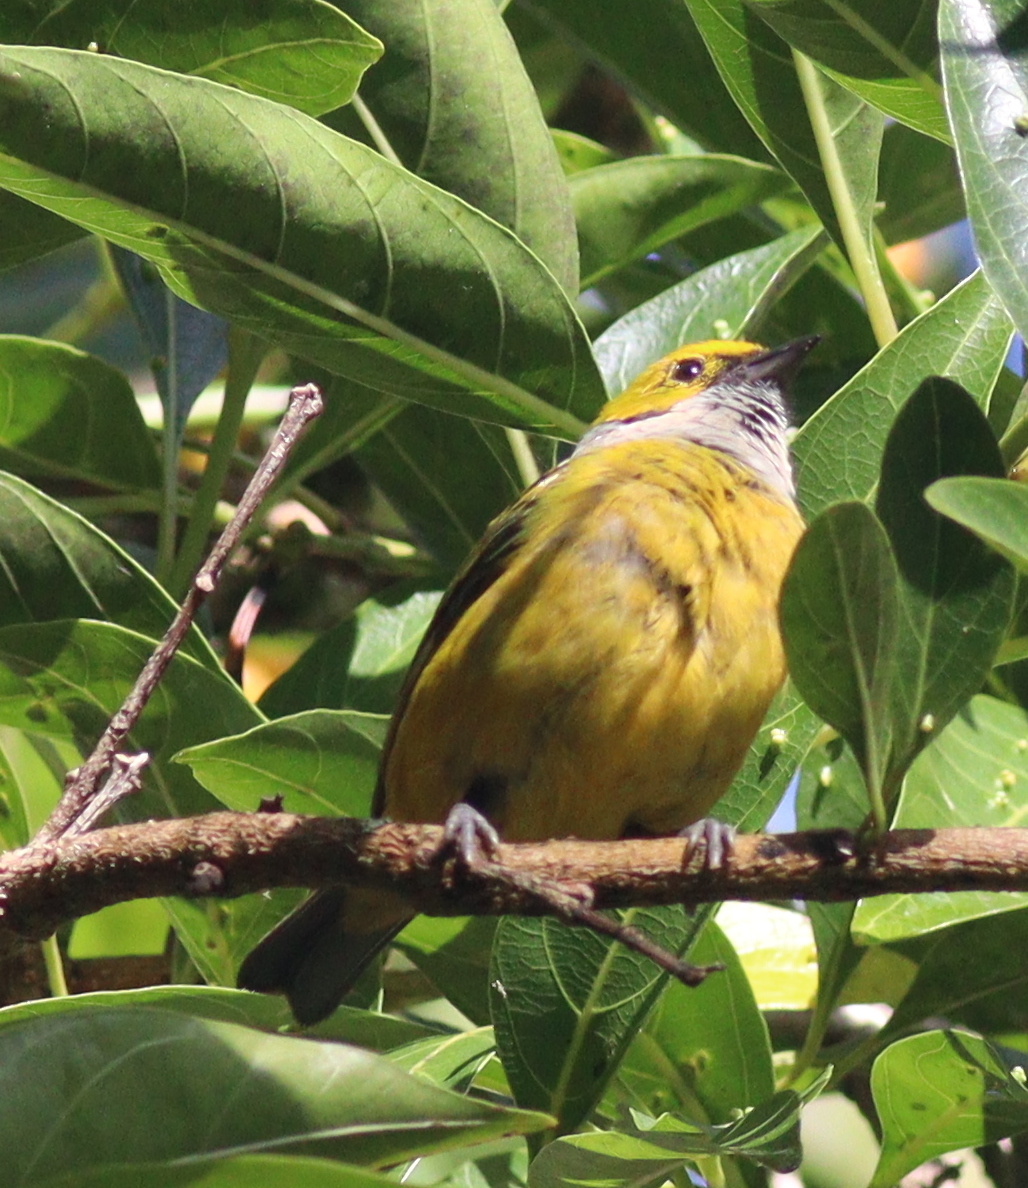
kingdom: Animalia
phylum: Chordata
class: Aves
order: Passeriformes
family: Thraupidae
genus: Tangara
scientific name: Tangara icterocephala
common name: Silver-throated tanager
